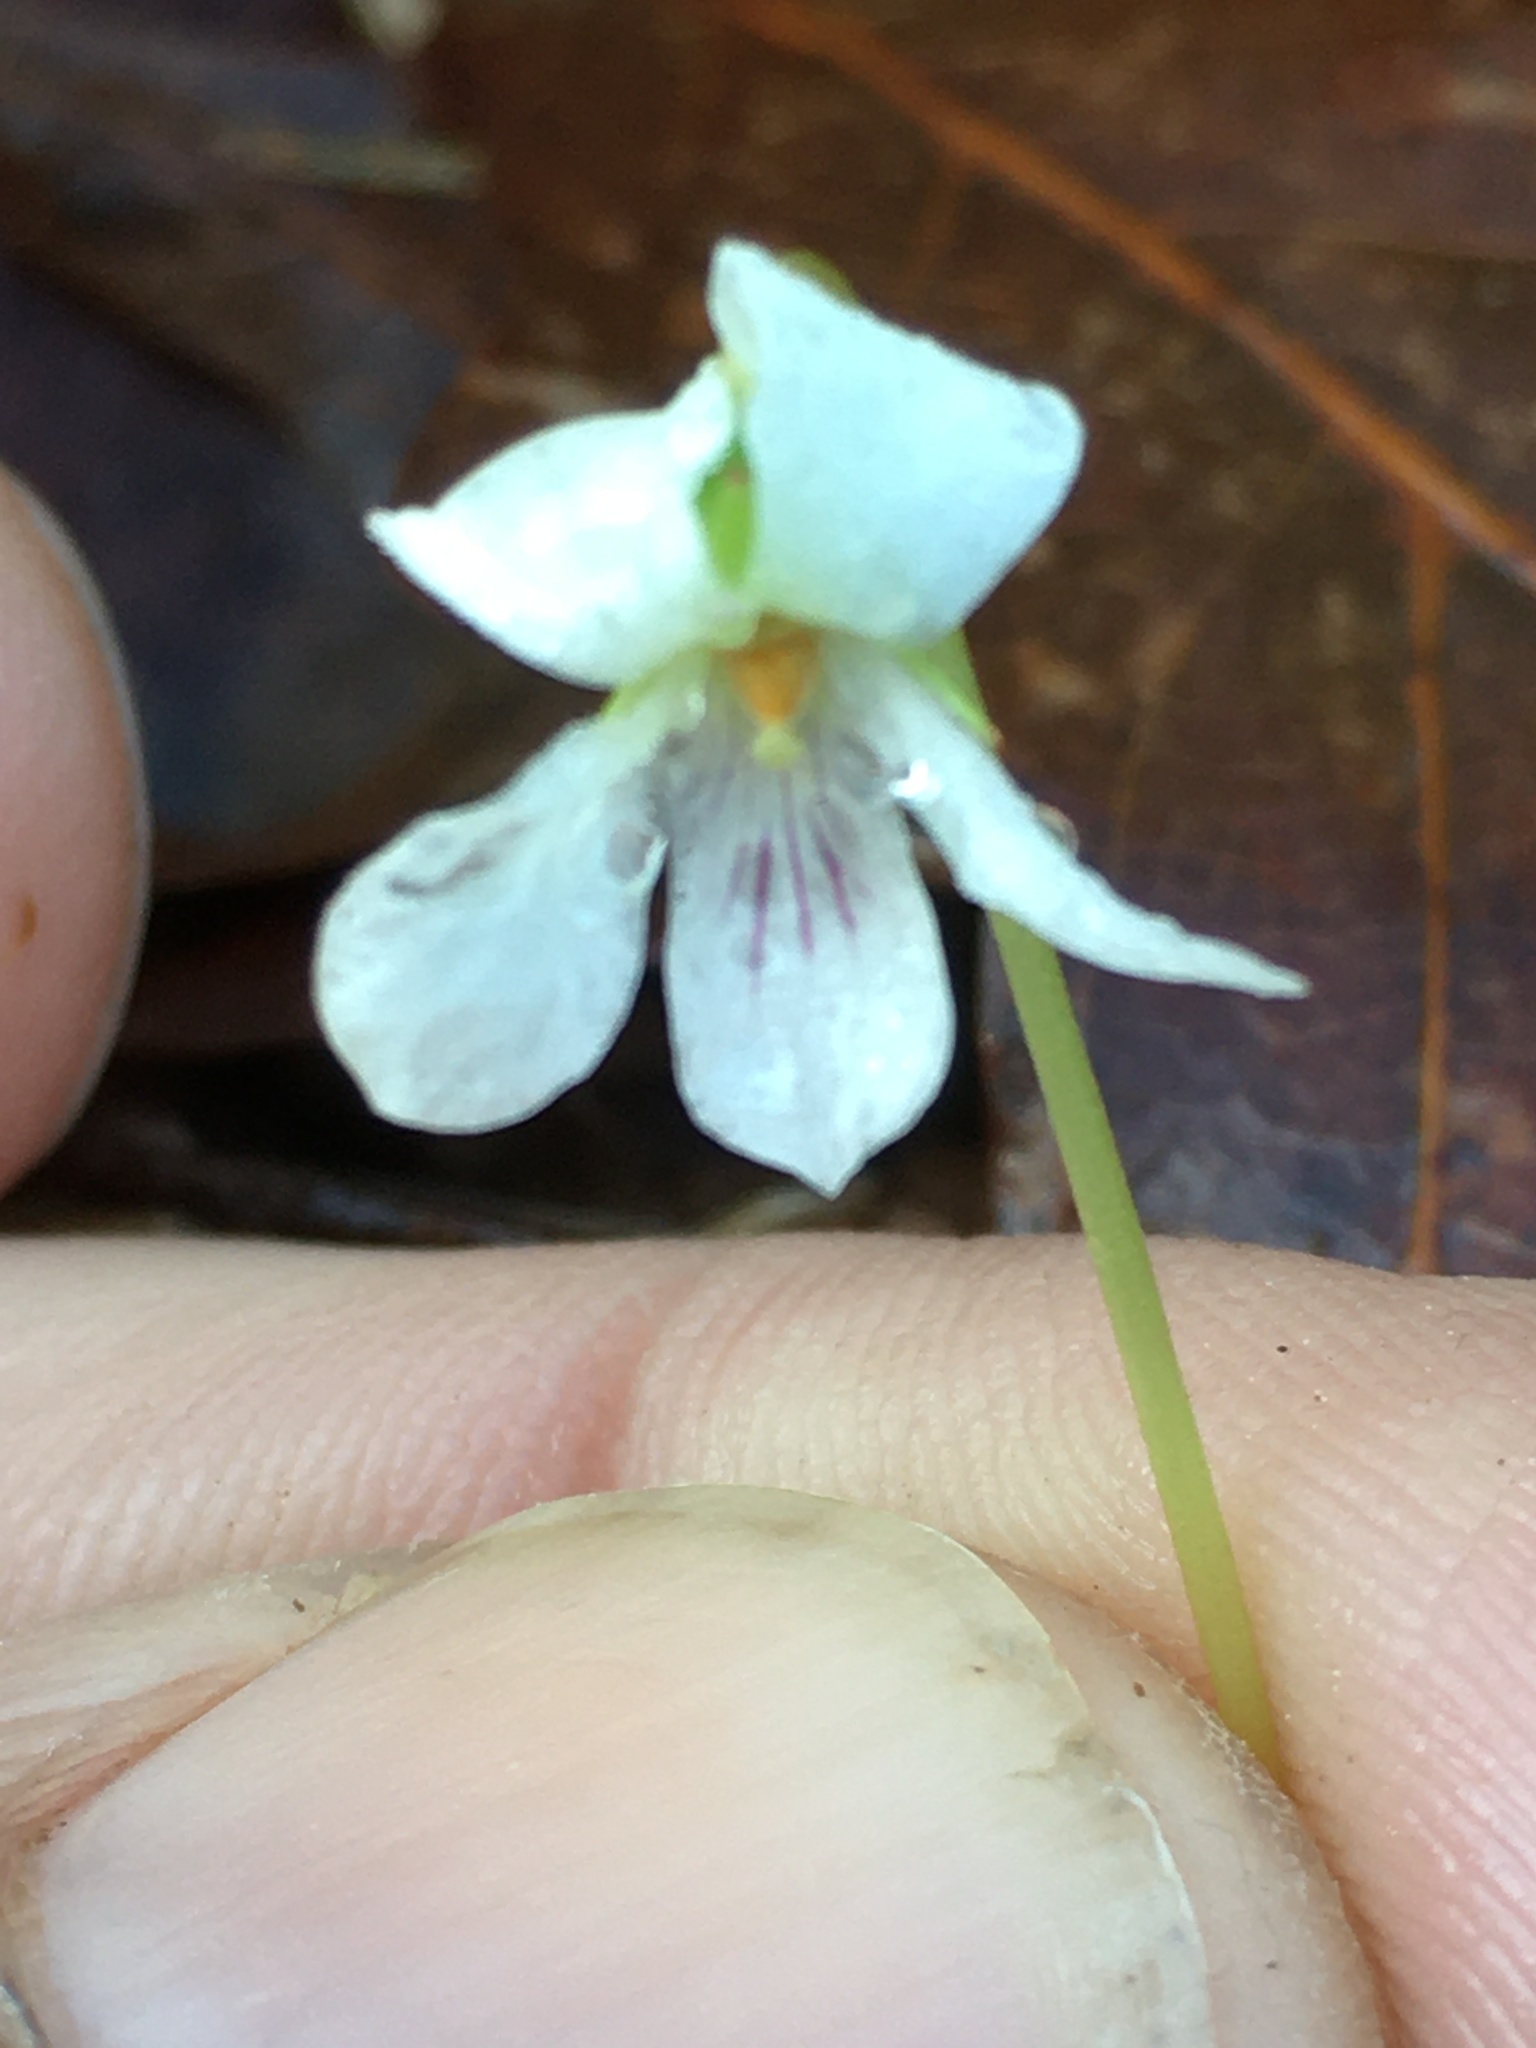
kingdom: Plantae
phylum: Tracheophyta
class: Magnoliopsida
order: Malpighiales
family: Violaceae
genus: Viola
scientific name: Viola primulifolia
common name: Primrose-leaf violet
